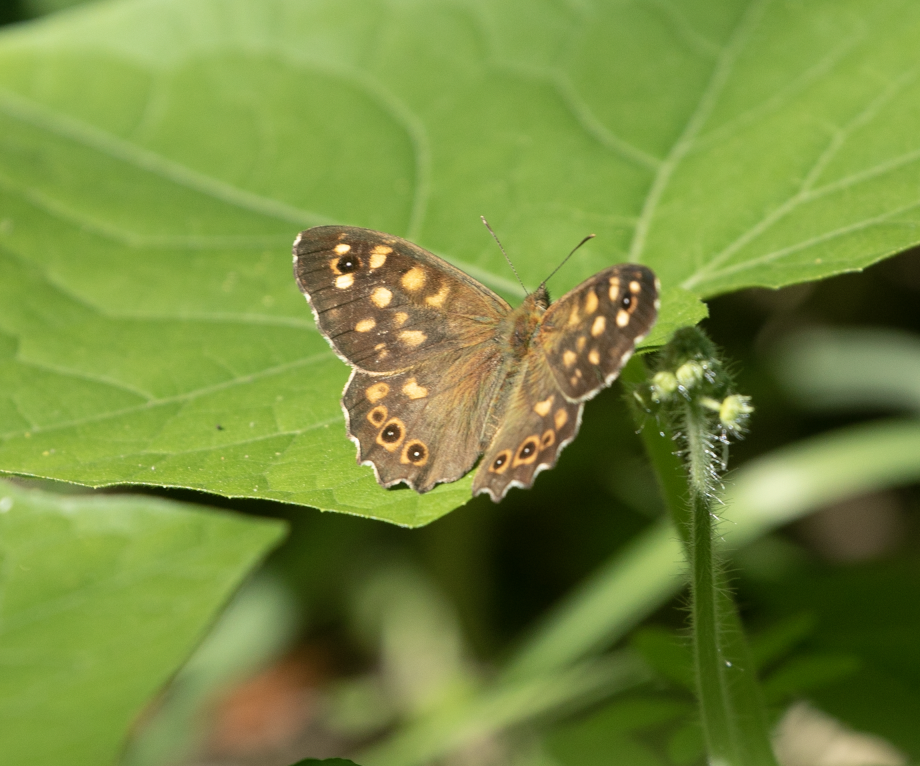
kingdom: Animalia
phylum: Arthropoda
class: Insecta
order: Lepidoptera
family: Nymphalidae
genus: Pararge
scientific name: Pararge aegeria
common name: Speckled wood
